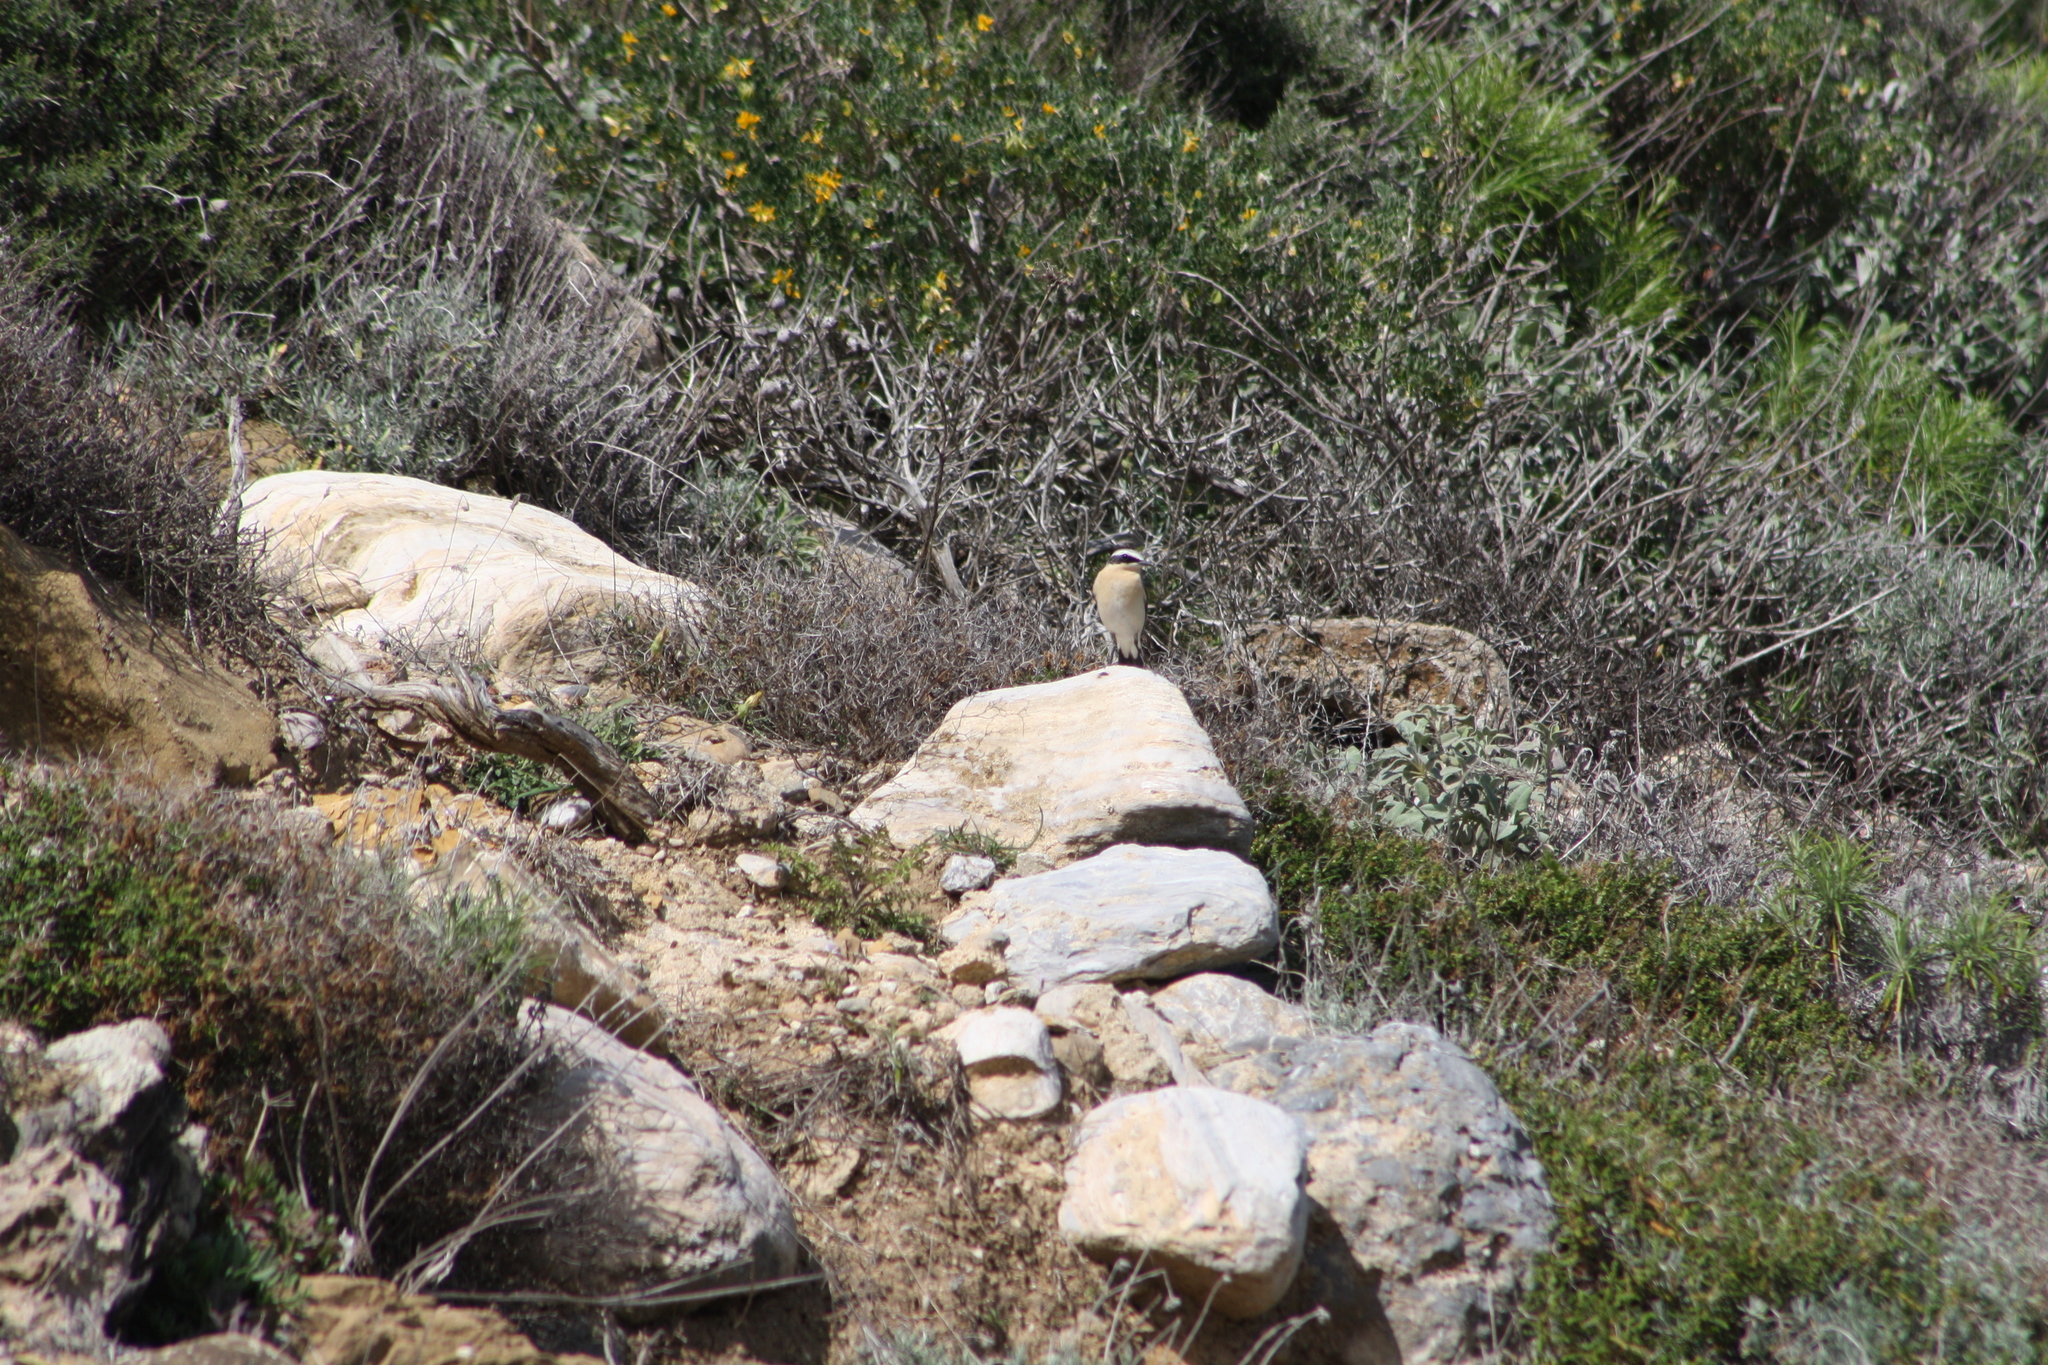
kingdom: Animalia
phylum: Chordata
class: Aves
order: Passeriformes
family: Muscicapidae
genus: Oenanthe
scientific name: Oenanthe oenanthe
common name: Northern wheatear
